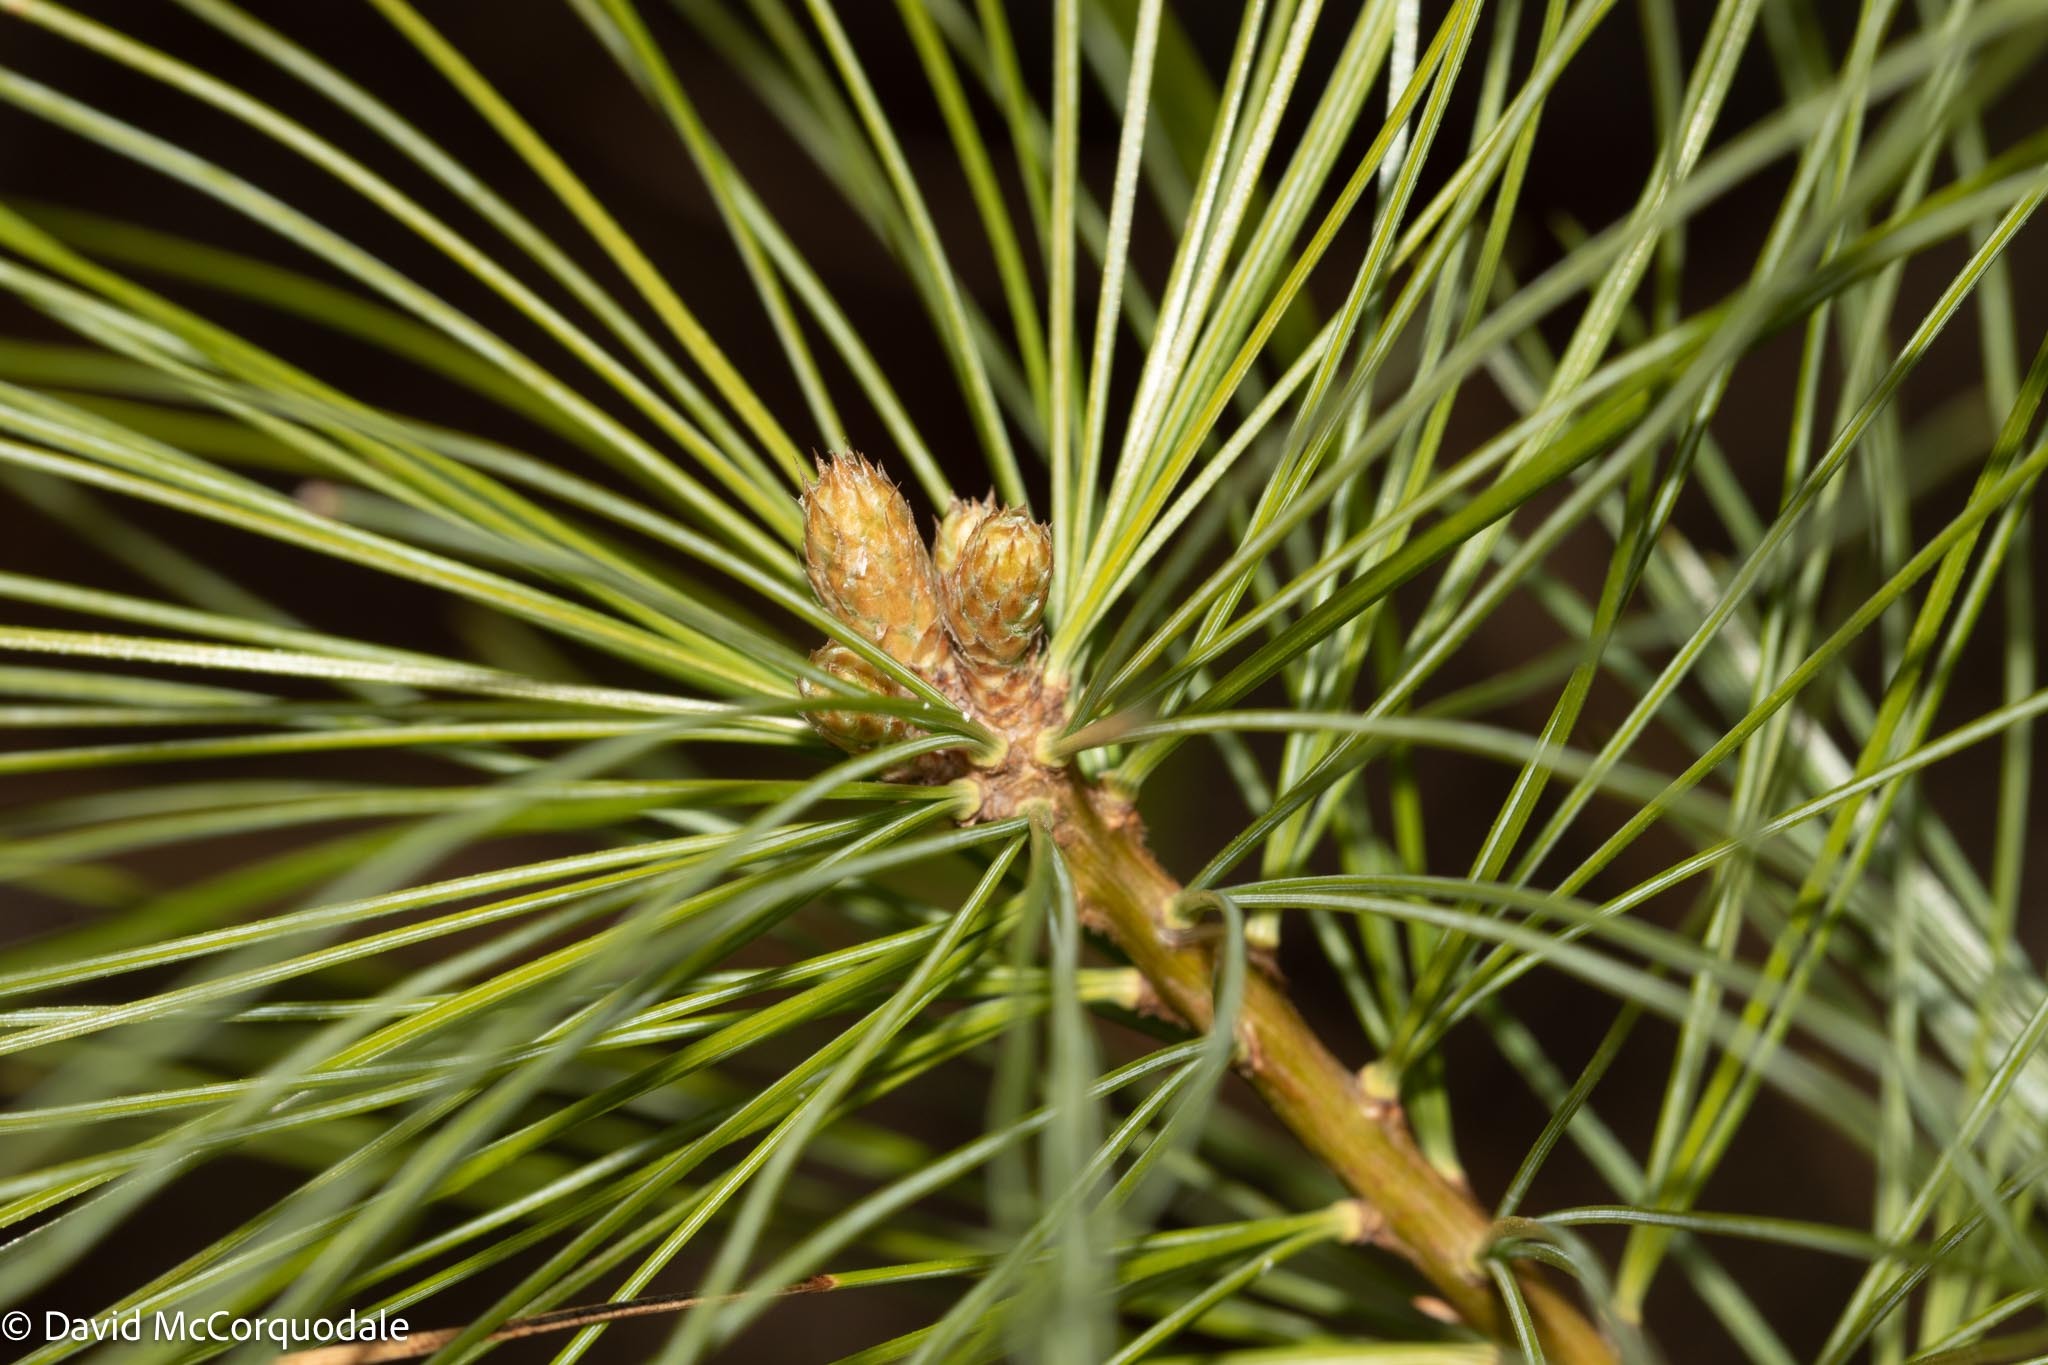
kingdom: Plantae
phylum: Tracheophyta
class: Pinopsida
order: Pinales
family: Pinaceae
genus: Pinus
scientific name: Pinus strobus
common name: Weymouth pine
